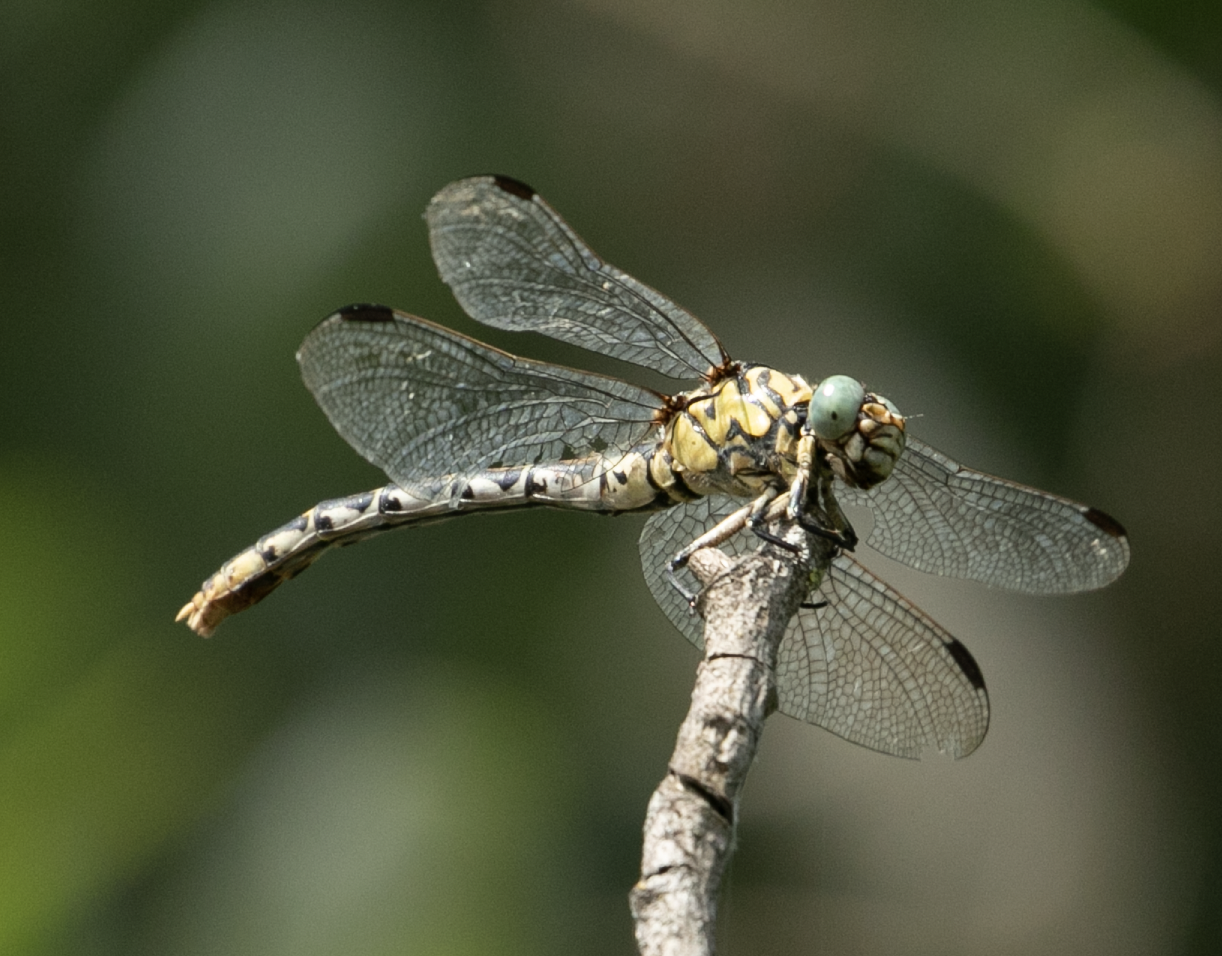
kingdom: Animalia
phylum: Arthropoda
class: Insecta
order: Odonata
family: Gomphidae
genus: Onychogomphus
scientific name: Onychogomphus forcipatus
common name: Small pincertail
